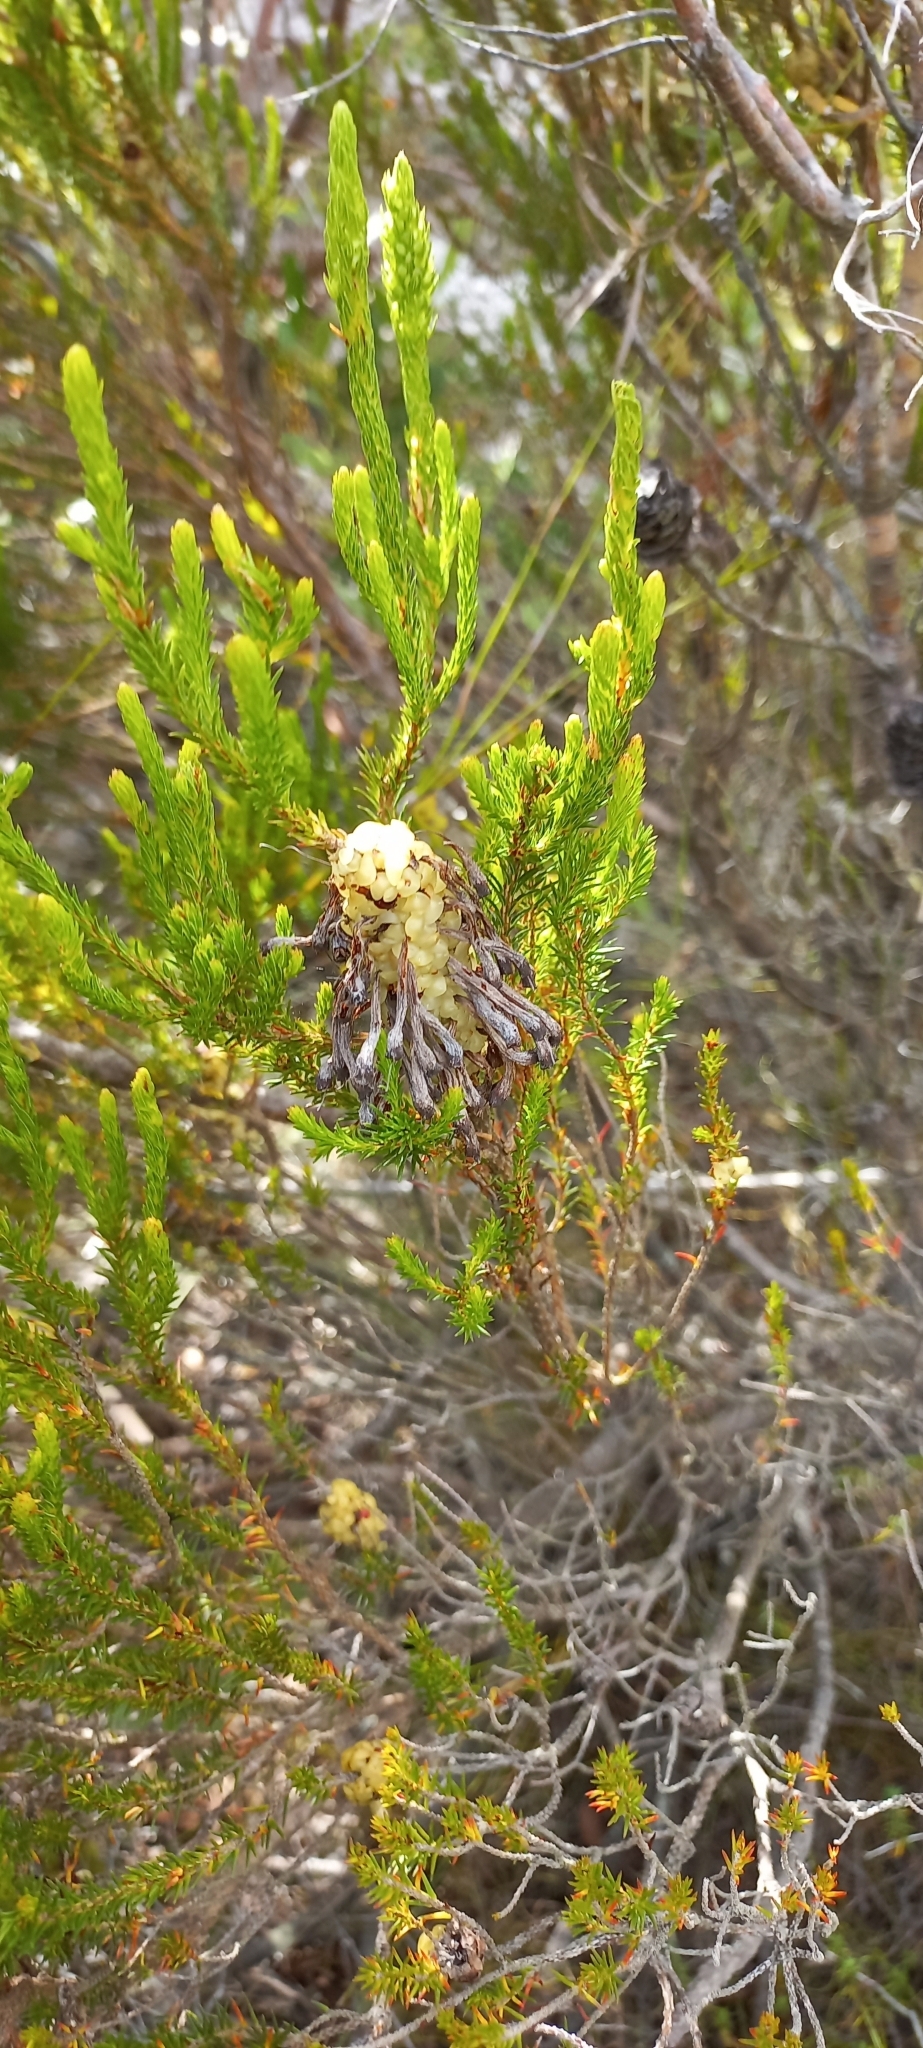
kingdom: Plantae
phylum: Tracheophyta
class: Magnoliopsida
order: Ericales
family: Ericaceae
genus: Erica
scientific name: Erica sessiliflora
